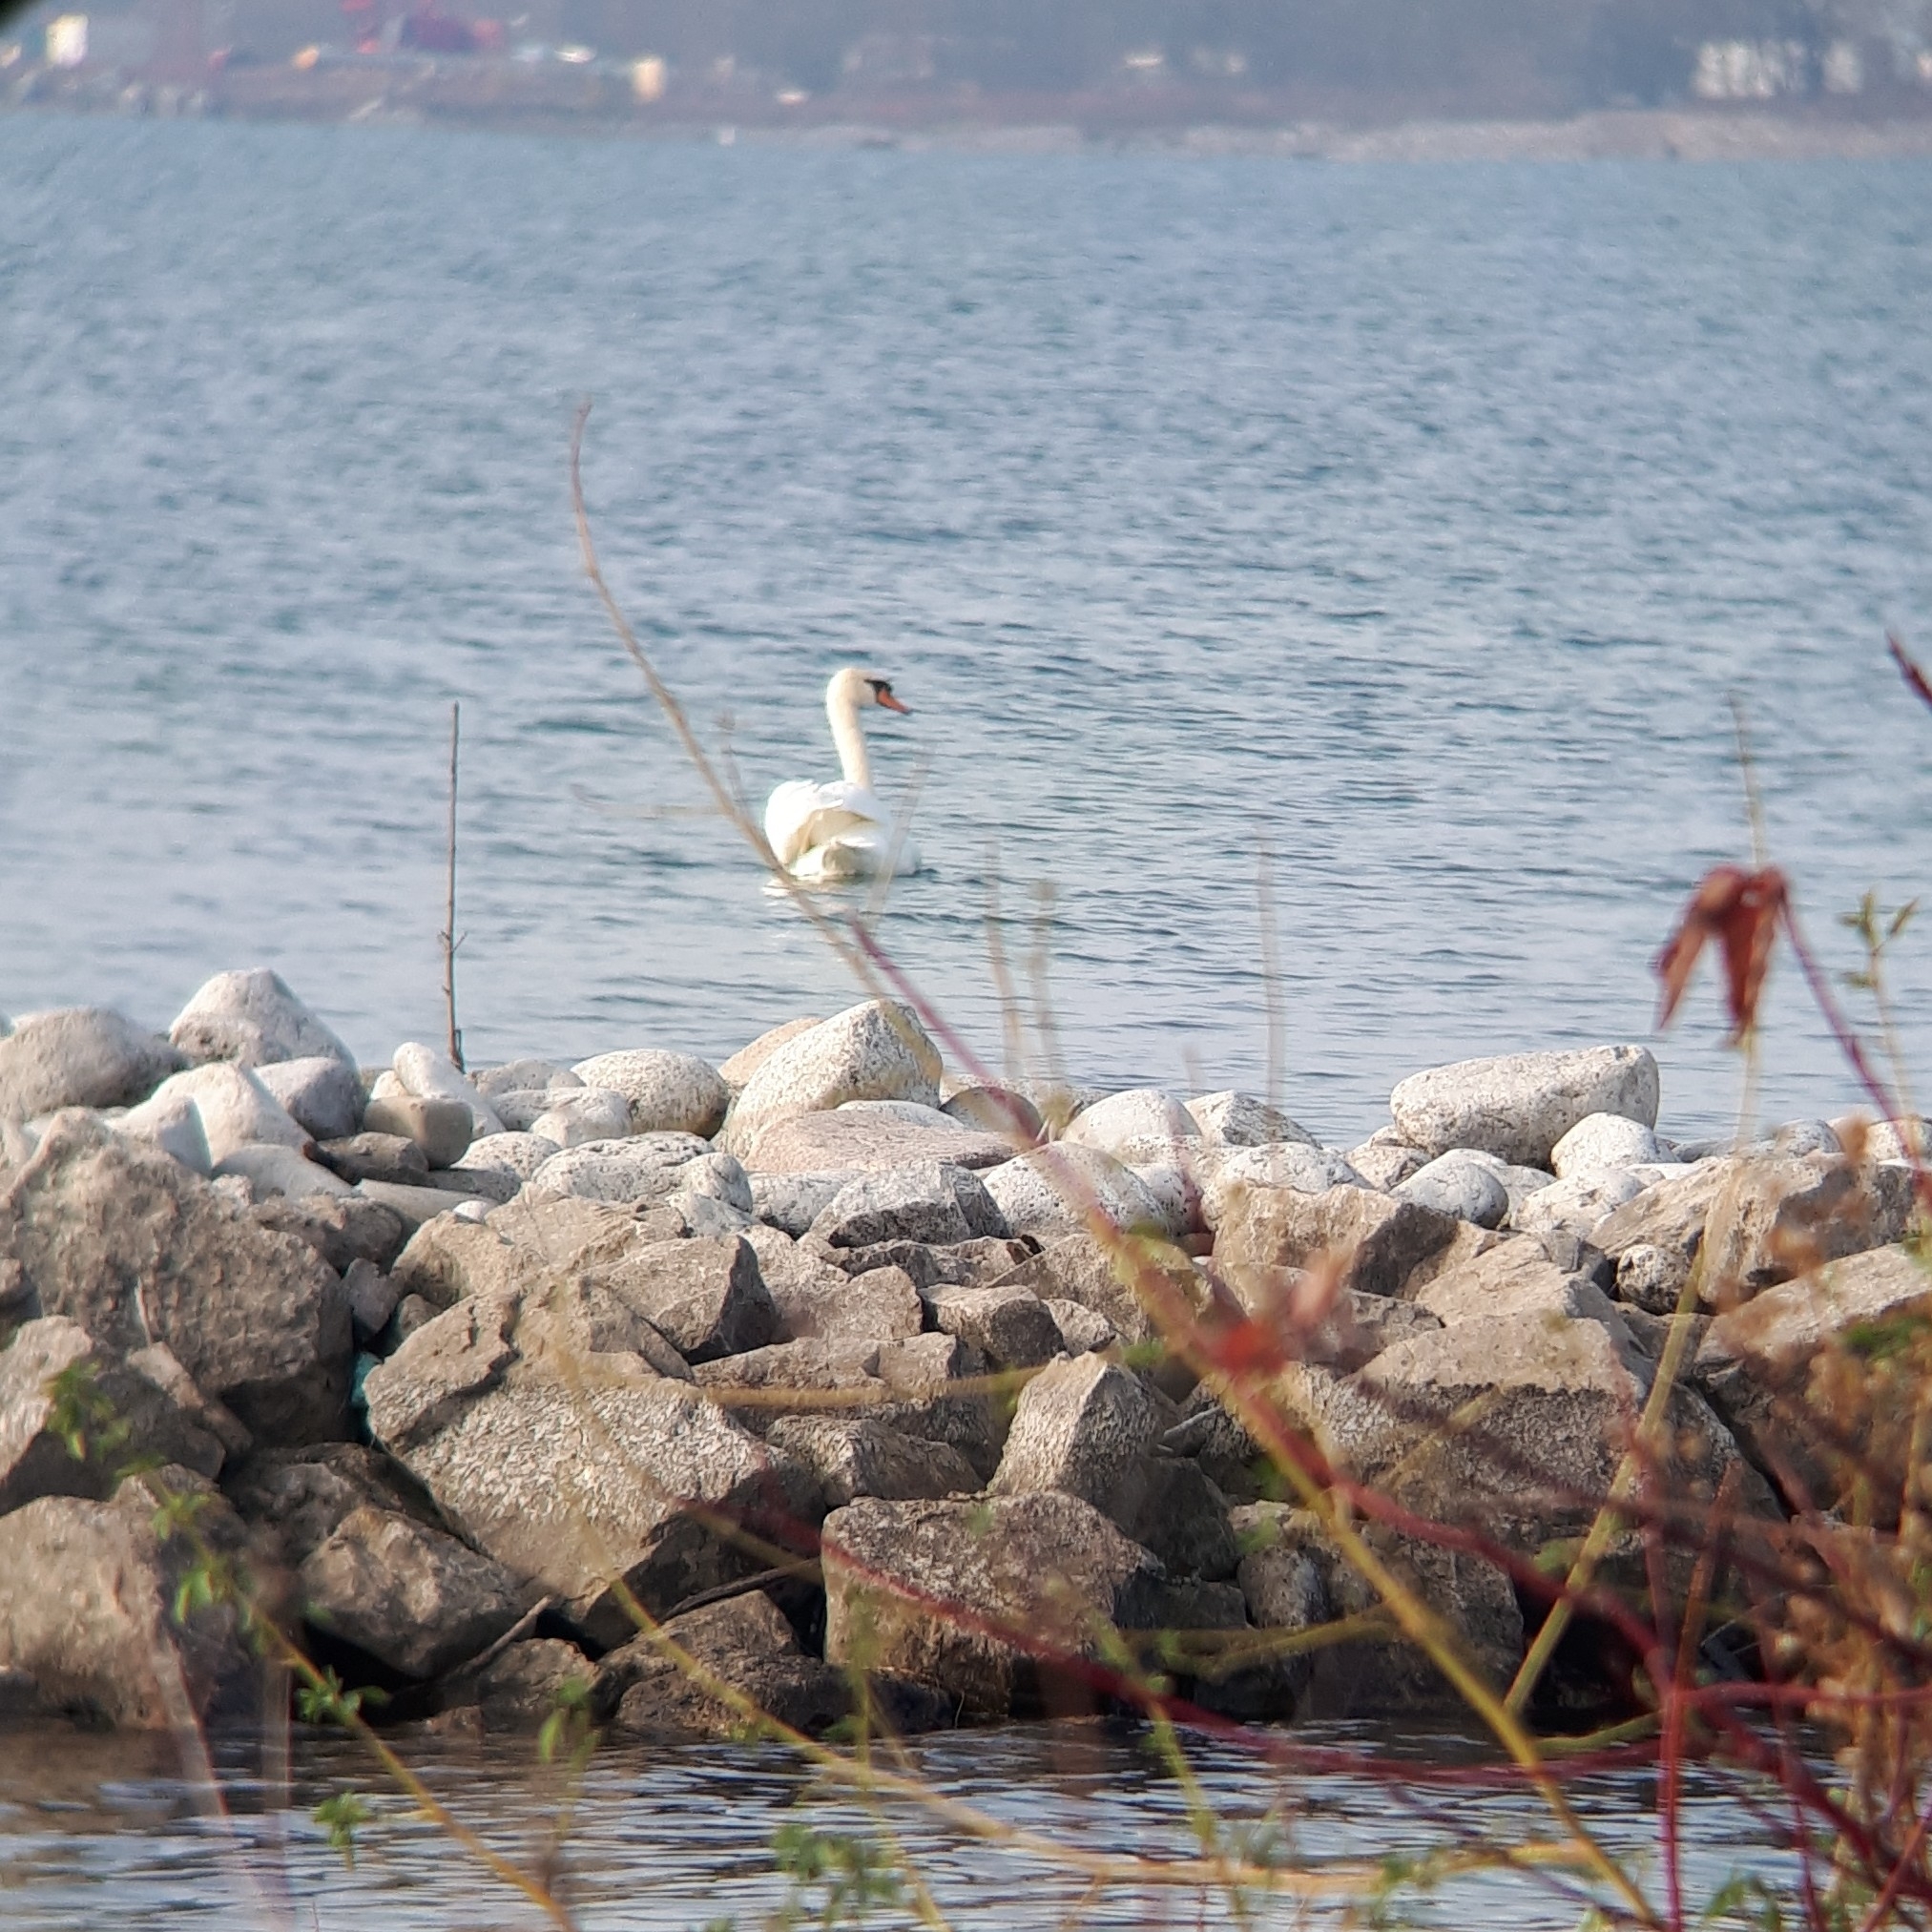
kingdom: Animalia
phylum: Chordata
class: Aves
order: Anseriformes
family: Anatidae
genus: Cygnus
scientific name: Cygnus olor
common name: Mute swan
